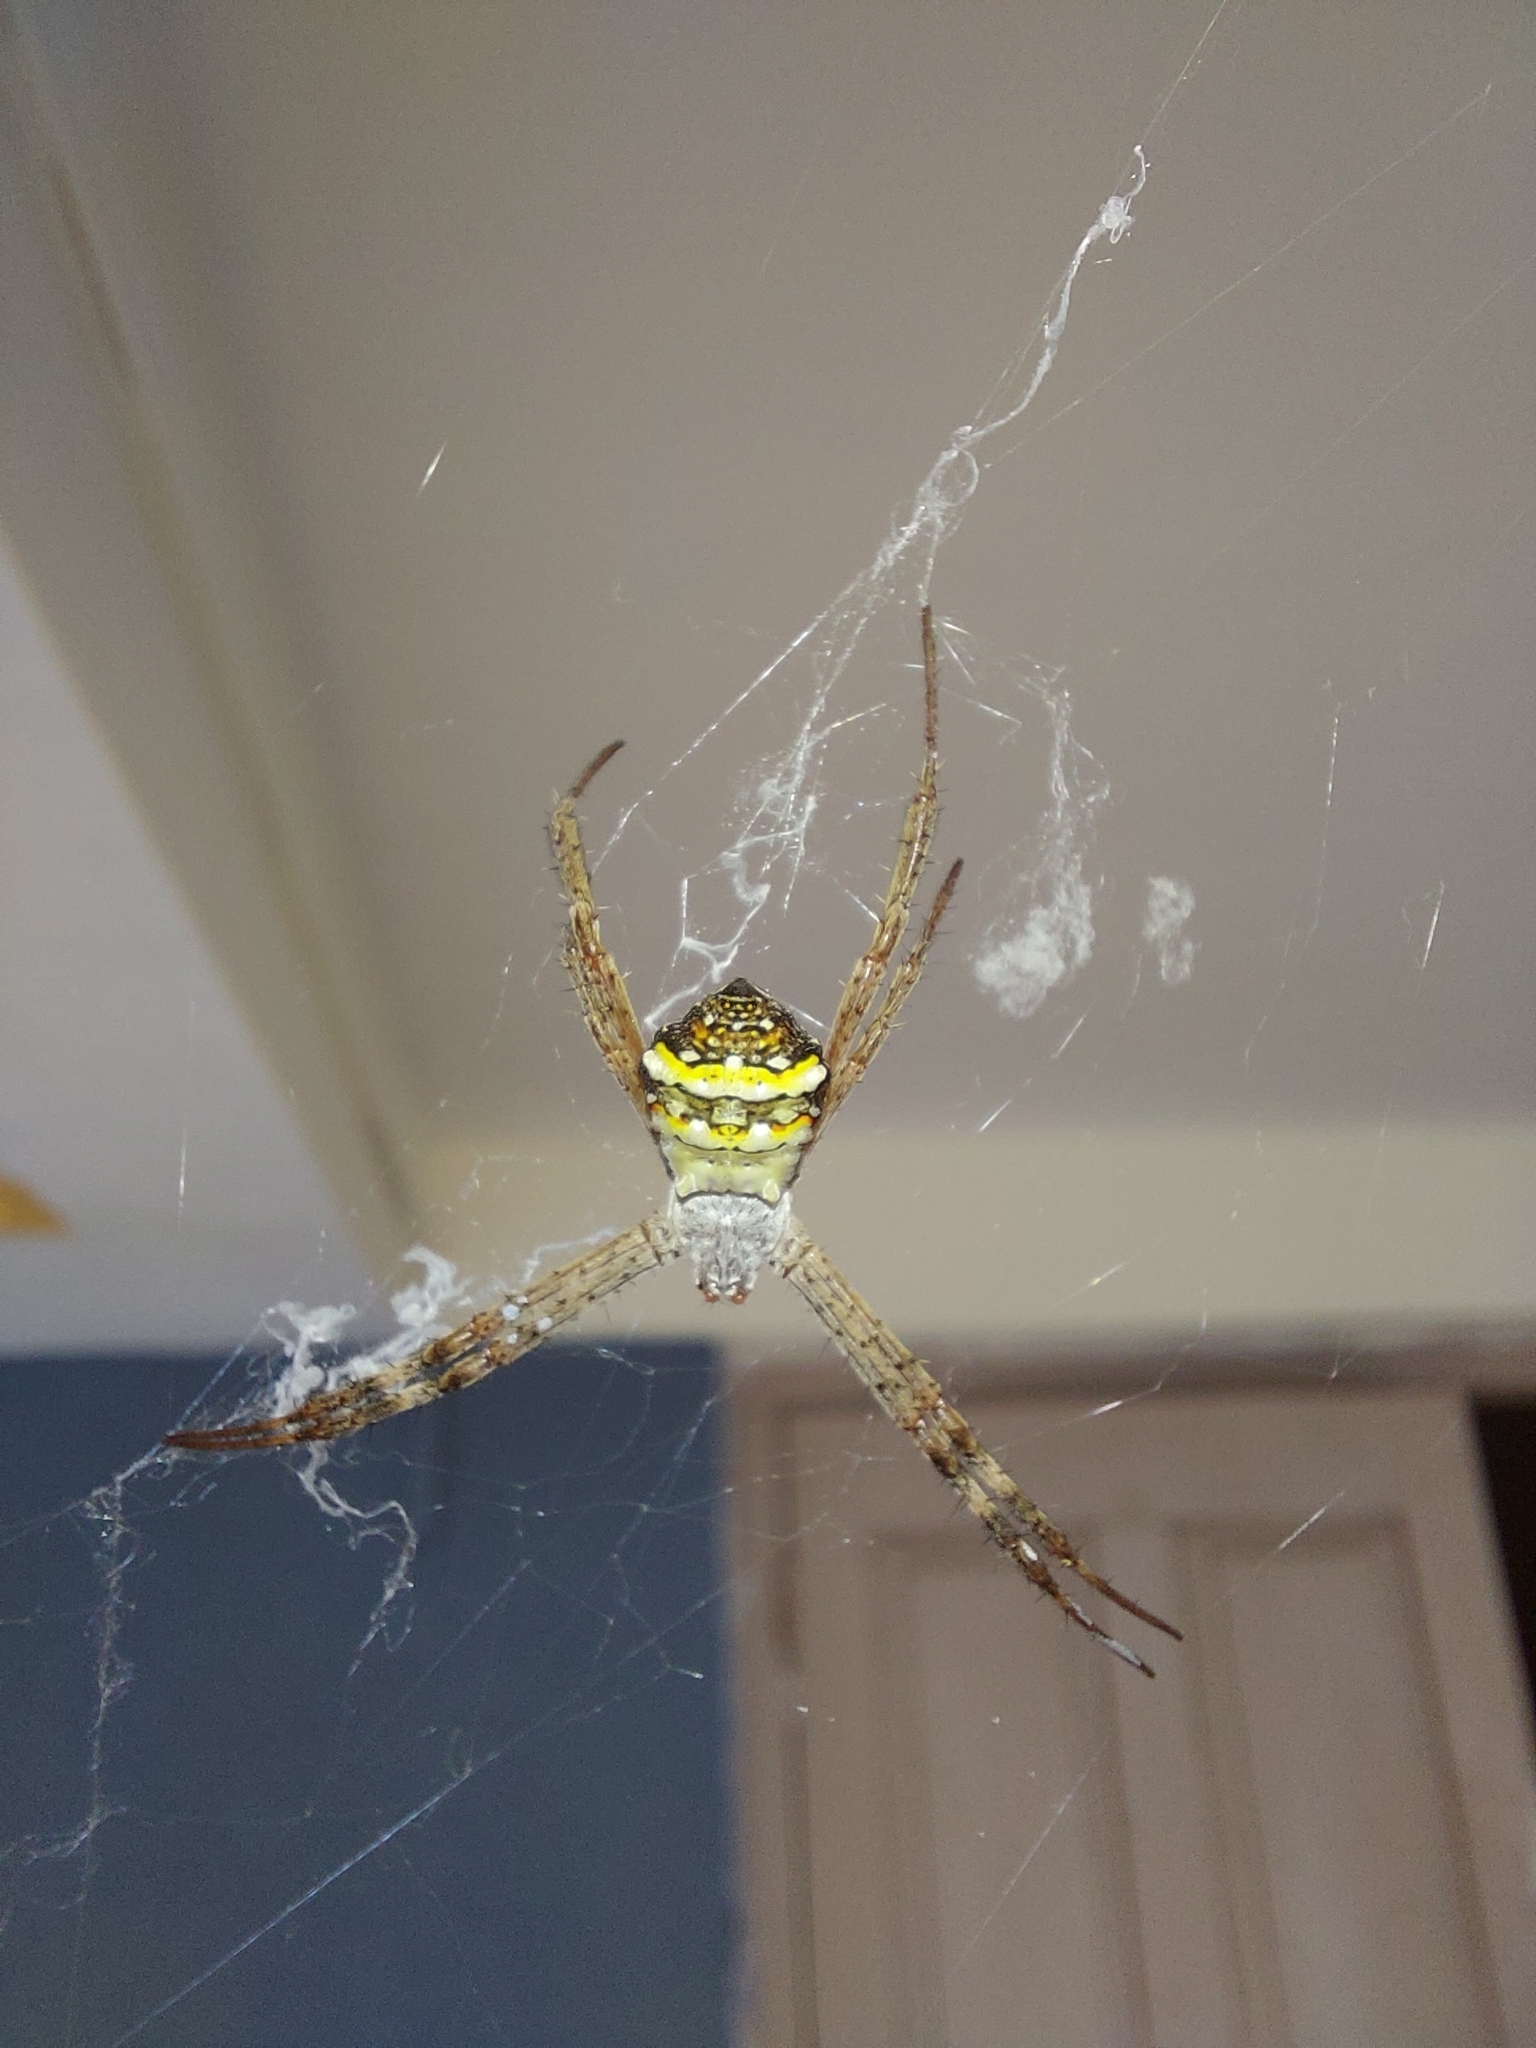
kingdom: Animalia
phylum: Arthropoda
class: Arachnida
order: Araneae
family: Araneidae
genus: Argiope
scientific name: Argiope anasuja
